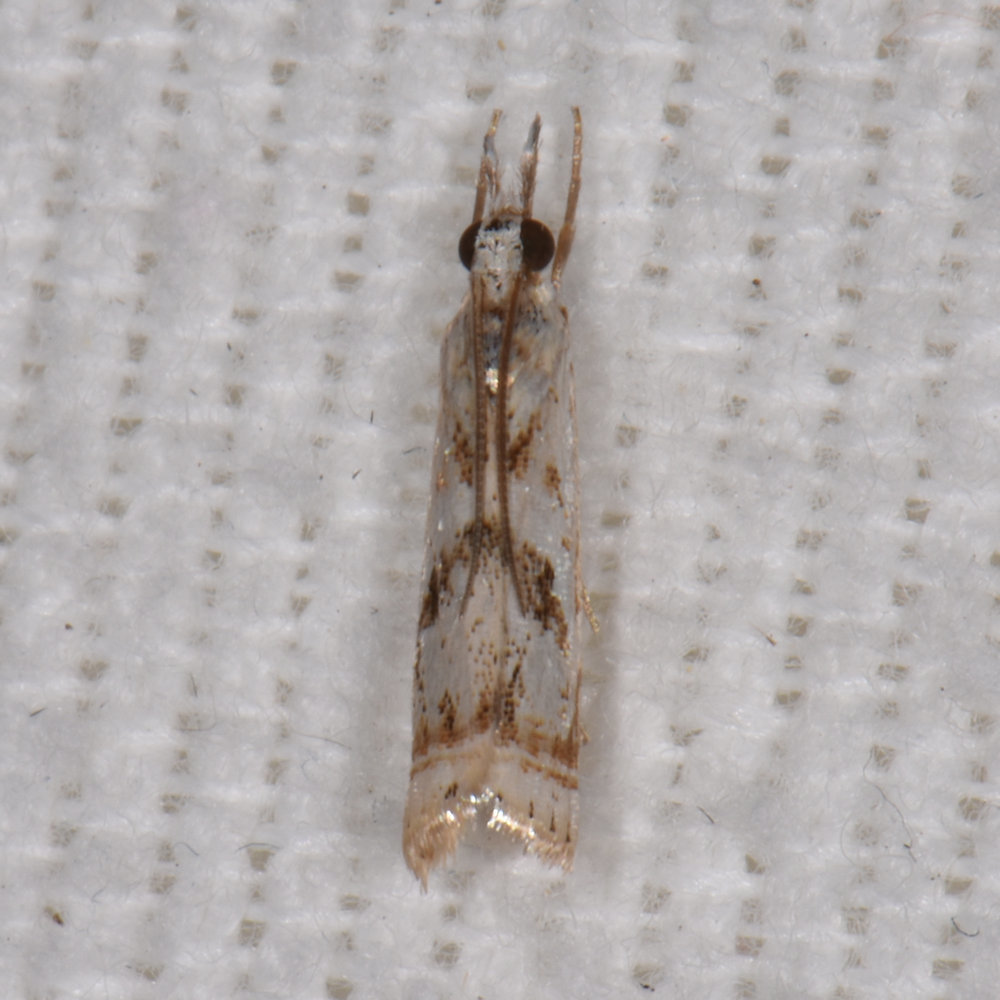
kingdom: Animalia
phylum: Arthropoda
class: Insecta
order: Lepidoptera
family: Crambidae
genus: Microcrambus
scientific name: Microcrambus elegans
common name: Elegant grass-veneer
